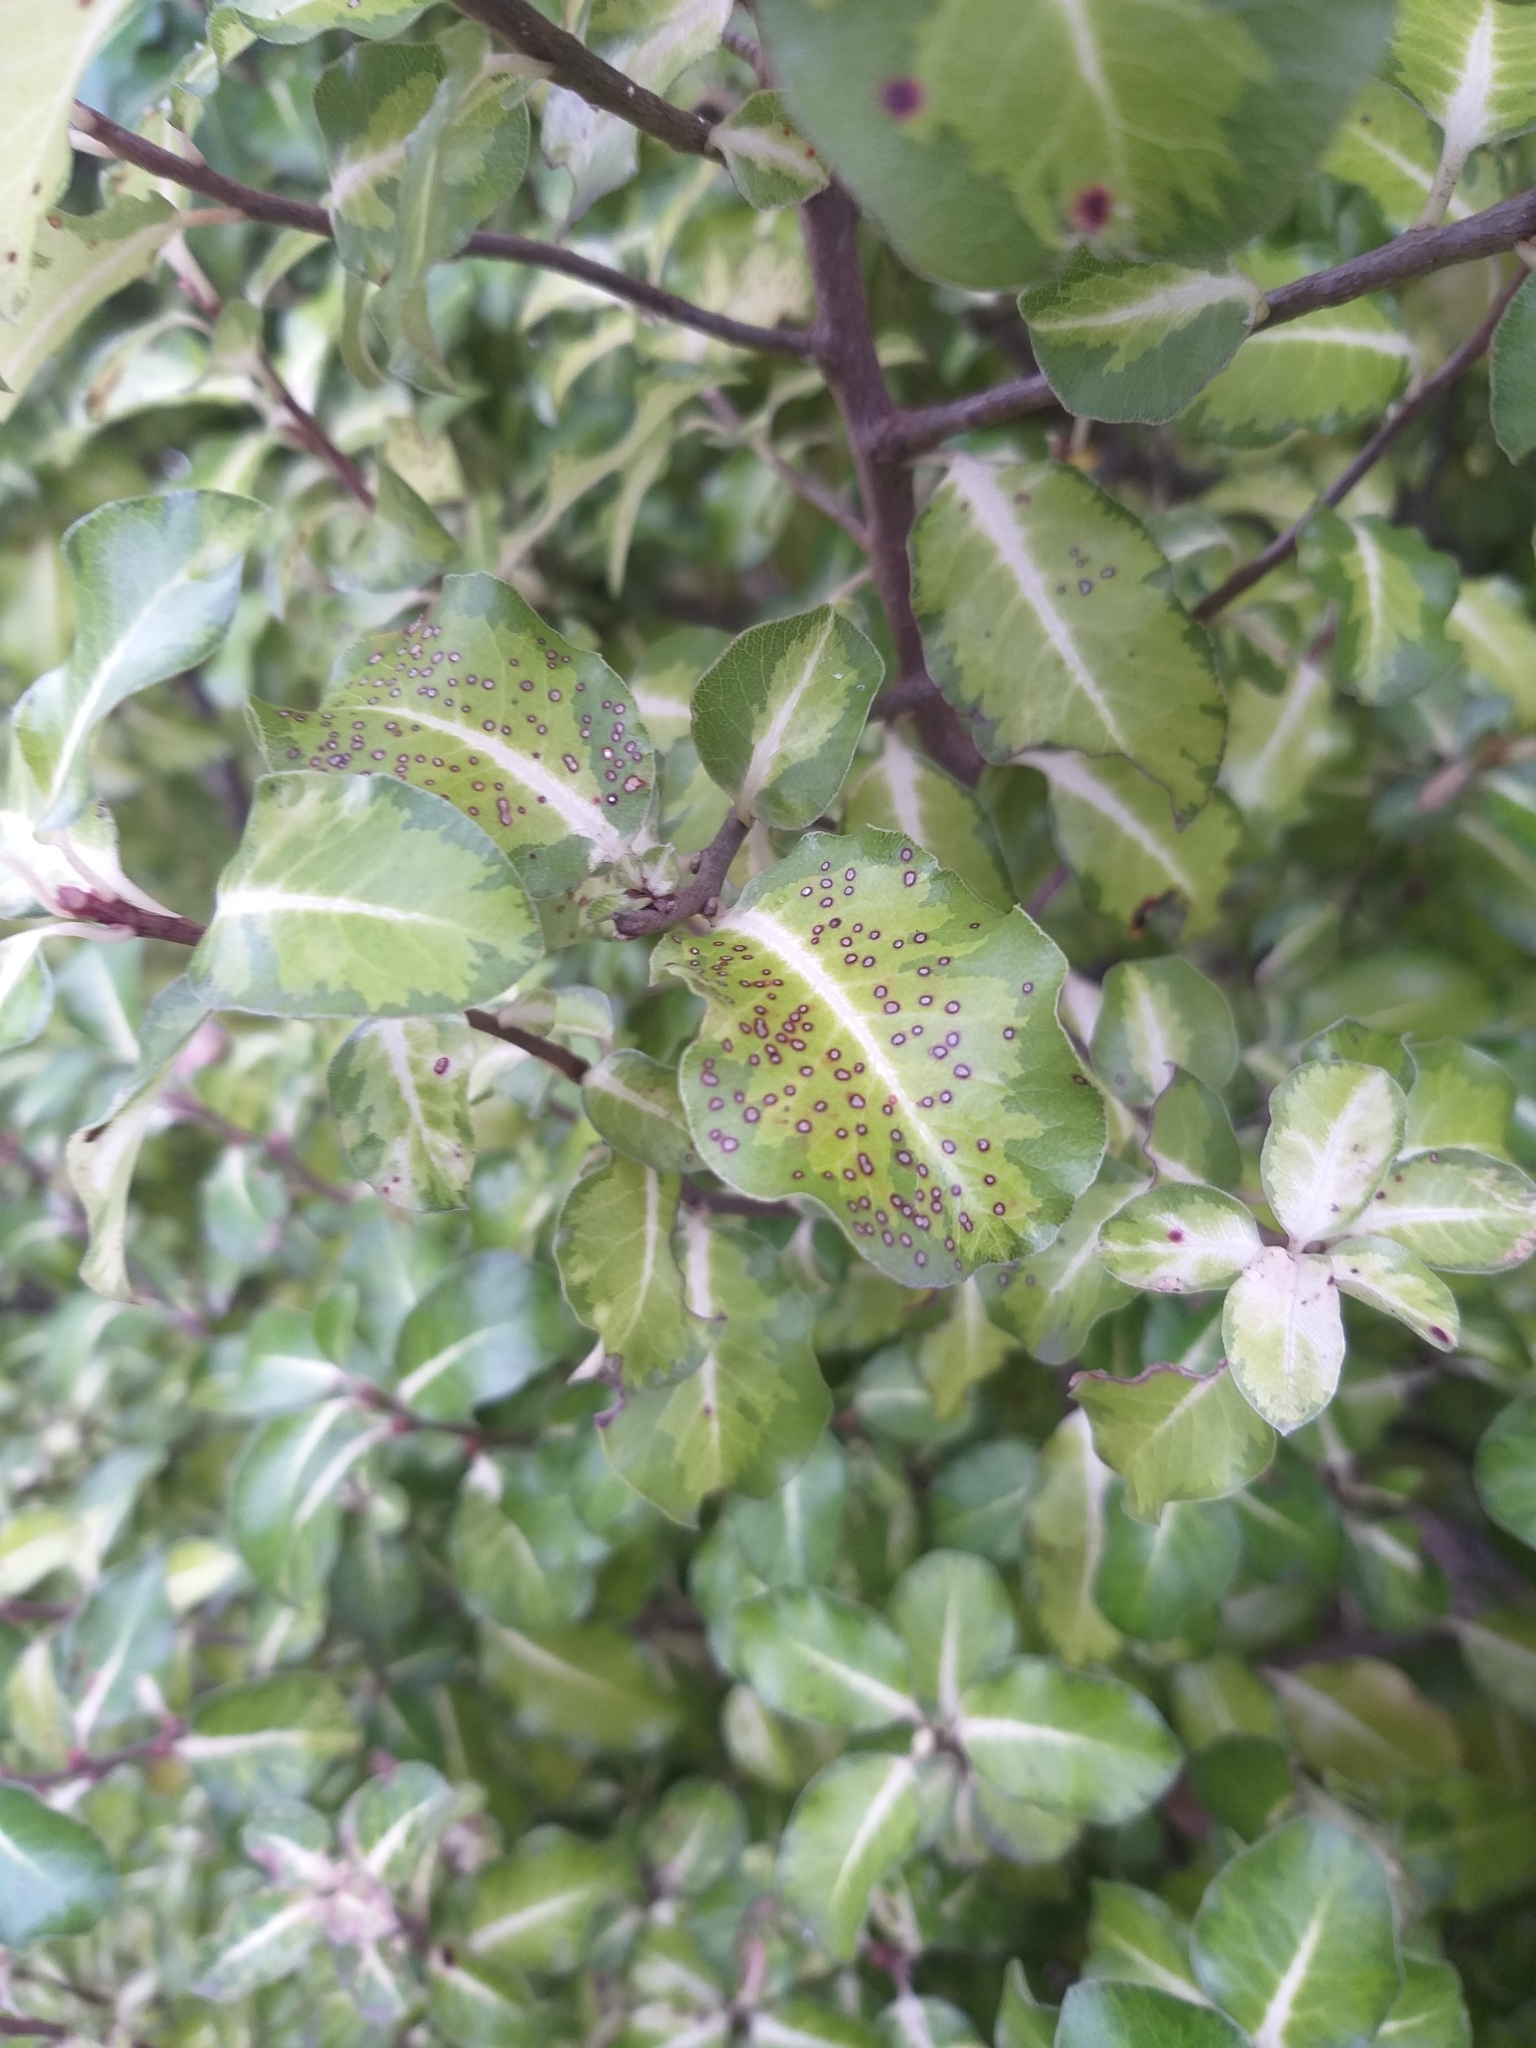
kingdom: Plantae
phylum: Tracheophyta
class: Magnoliopsida
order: Apiales
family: Pittosporaceae
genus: Pittosporum
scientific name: Pittosporum tenuifolium
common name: Kohuhu
